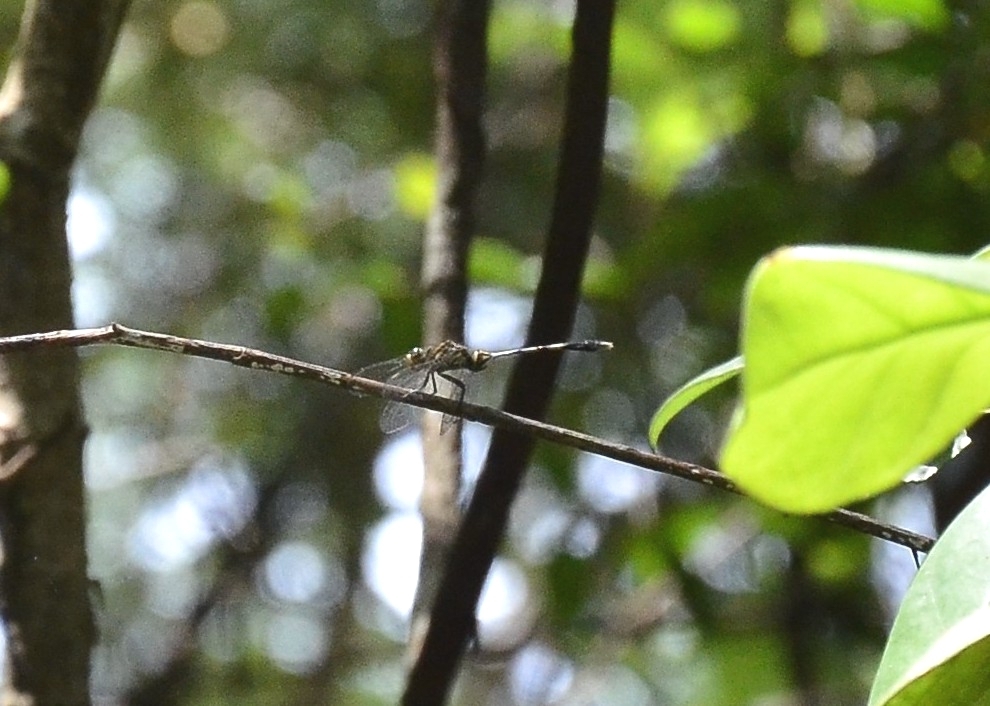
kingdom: Animalia
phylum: Arthropoda
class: Insecta
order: Odonata
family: Libellulidae
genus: Orthetrum
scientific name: Orthetrum sabina
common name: Slender skimmer
